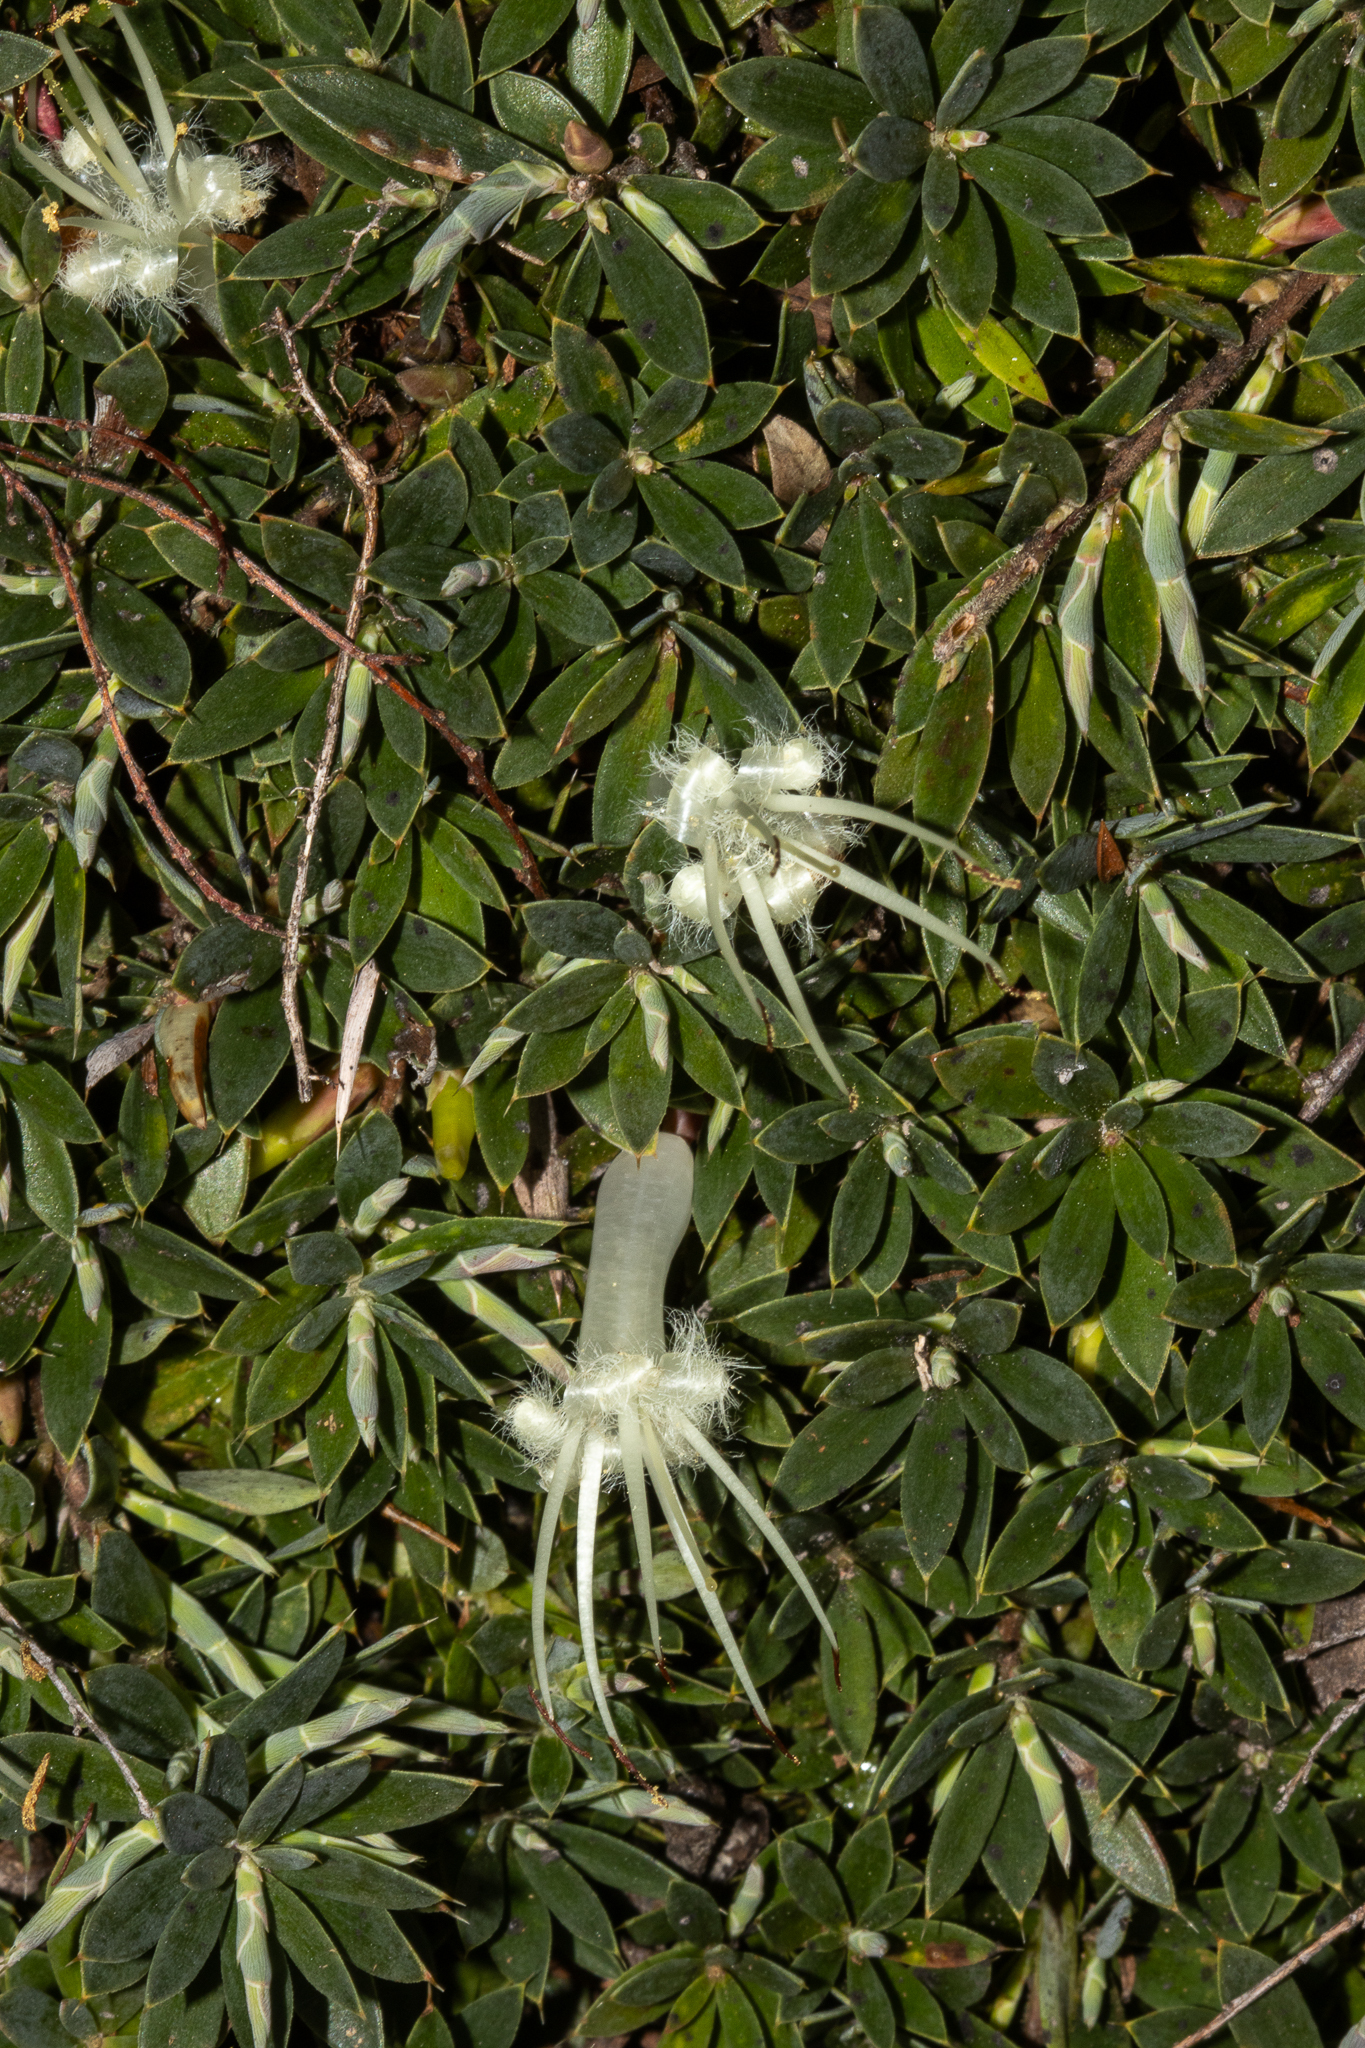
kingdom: Plantae
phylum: Tracheophyta
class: Magnoliopsida
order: Ericales
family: Ericaceae
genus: Styphelia
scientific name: Styphelia adscendens
